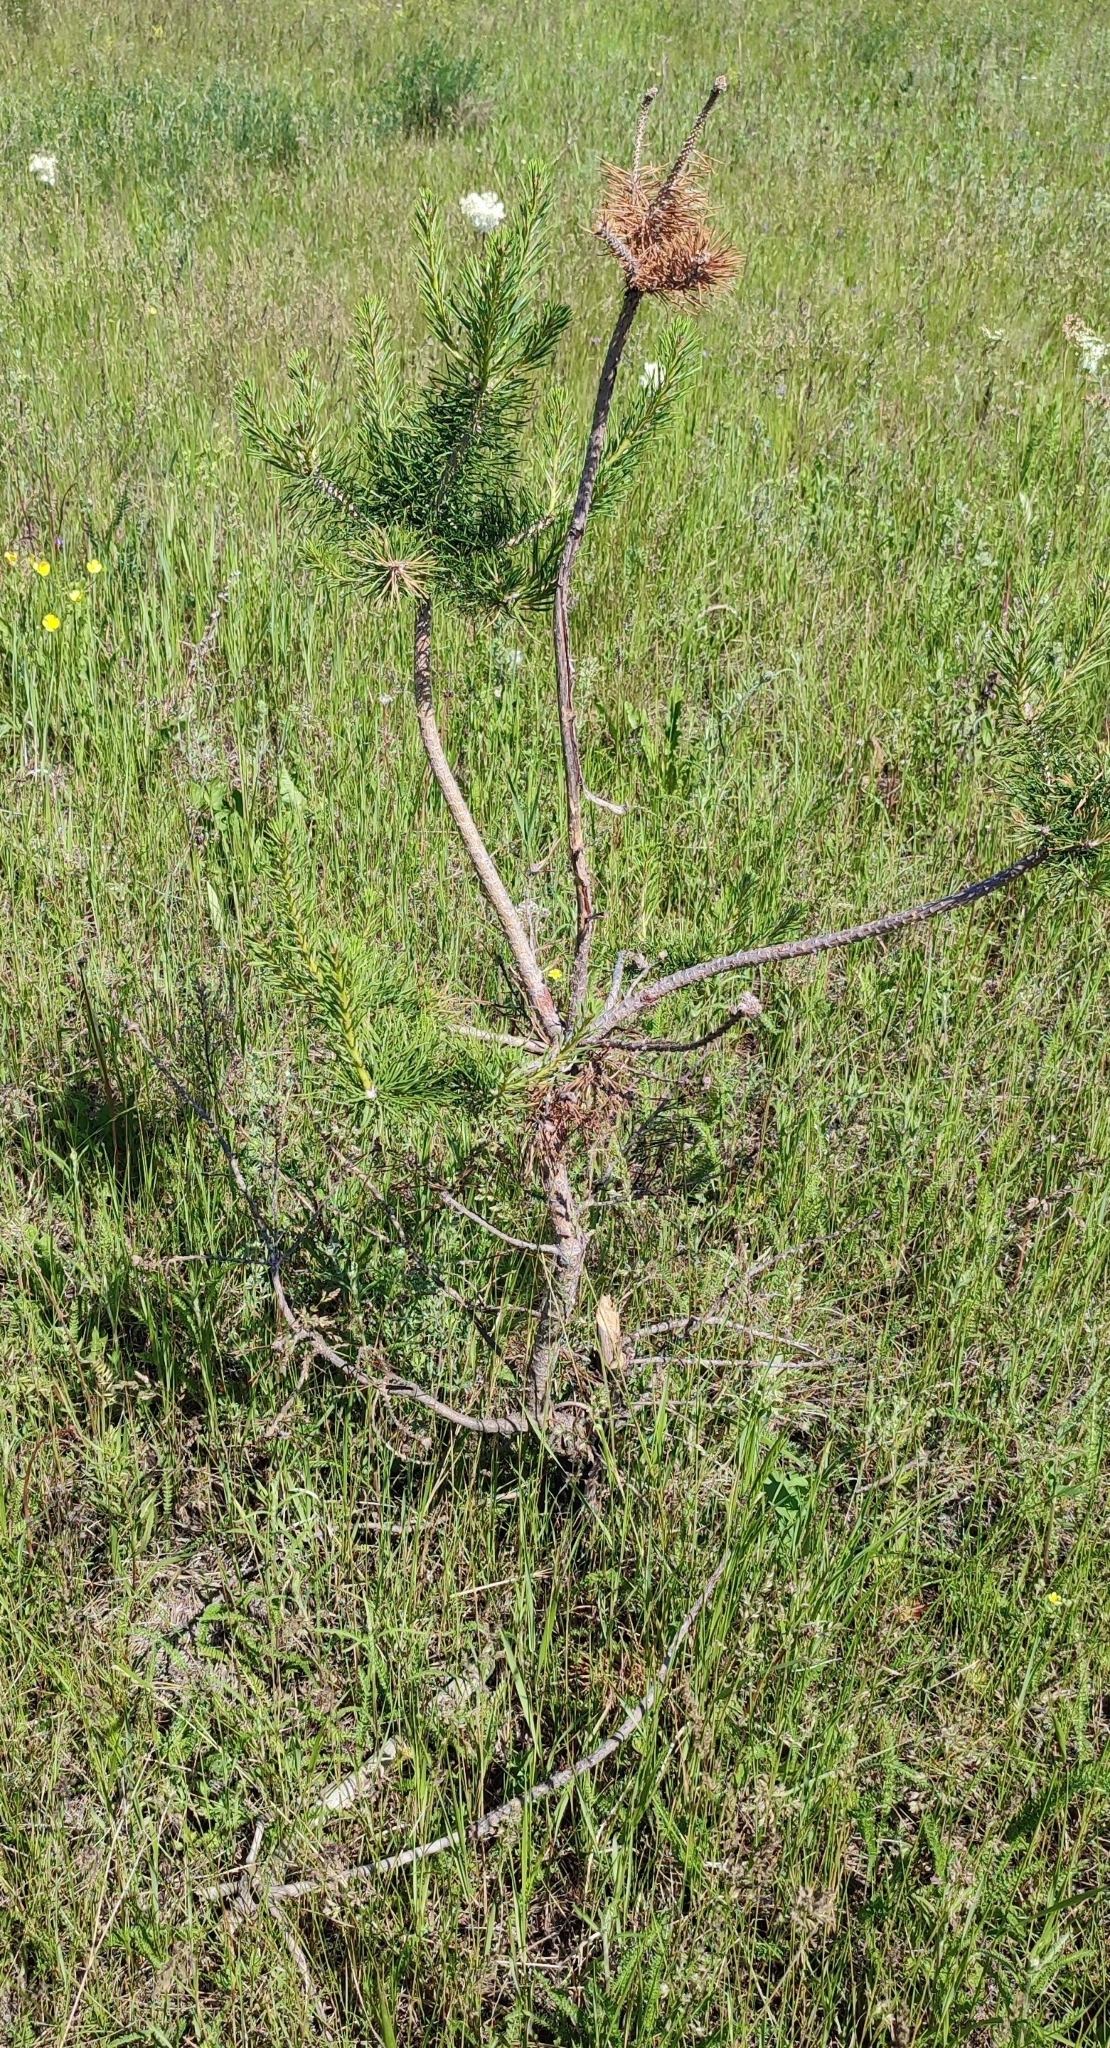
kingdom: Plantae
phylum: Tracheophyta
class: Pinopsida
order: Pinales
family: Pinaceae
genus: Pinus
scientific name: Pinus sylvestris
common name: Scots pine
